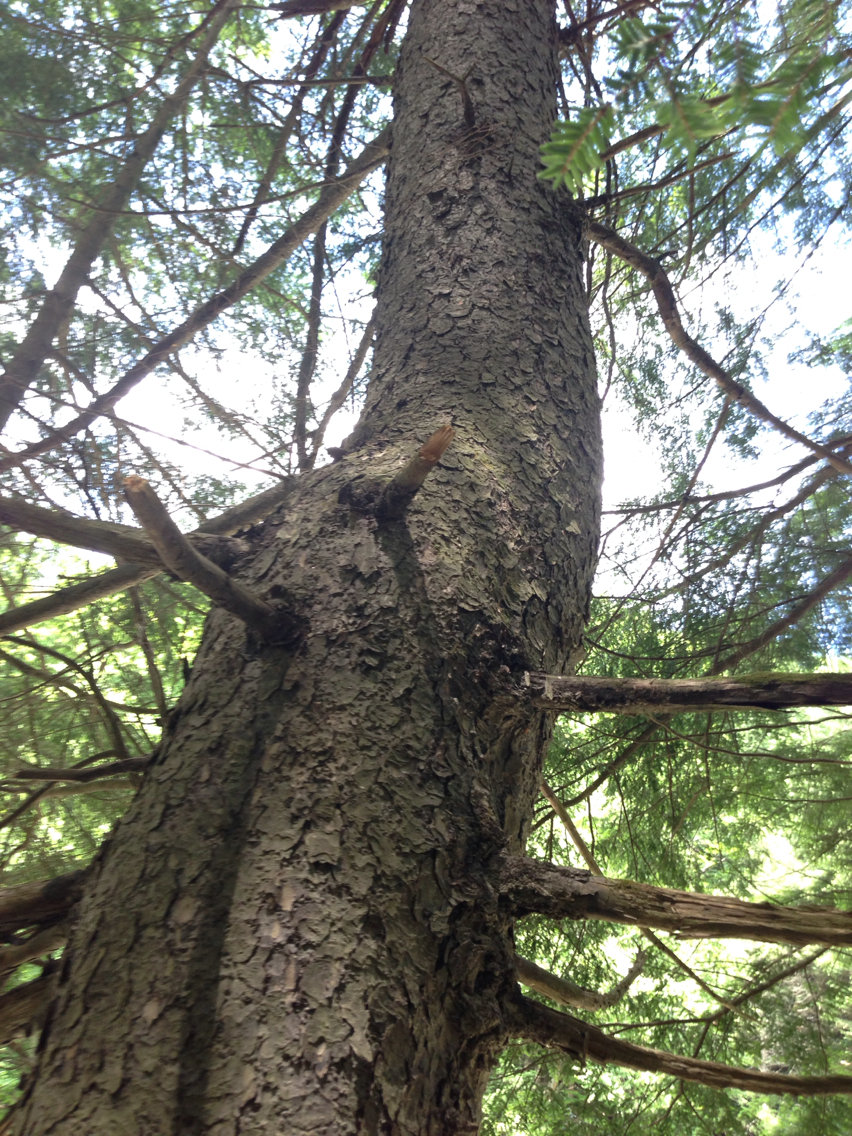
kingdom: Plantae
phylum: Tracheophyta
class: Pinopsida
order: Pinales
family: Pinaceae
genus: Tsuga
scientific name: Tsuga canadensis
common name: Eastern hemlock
